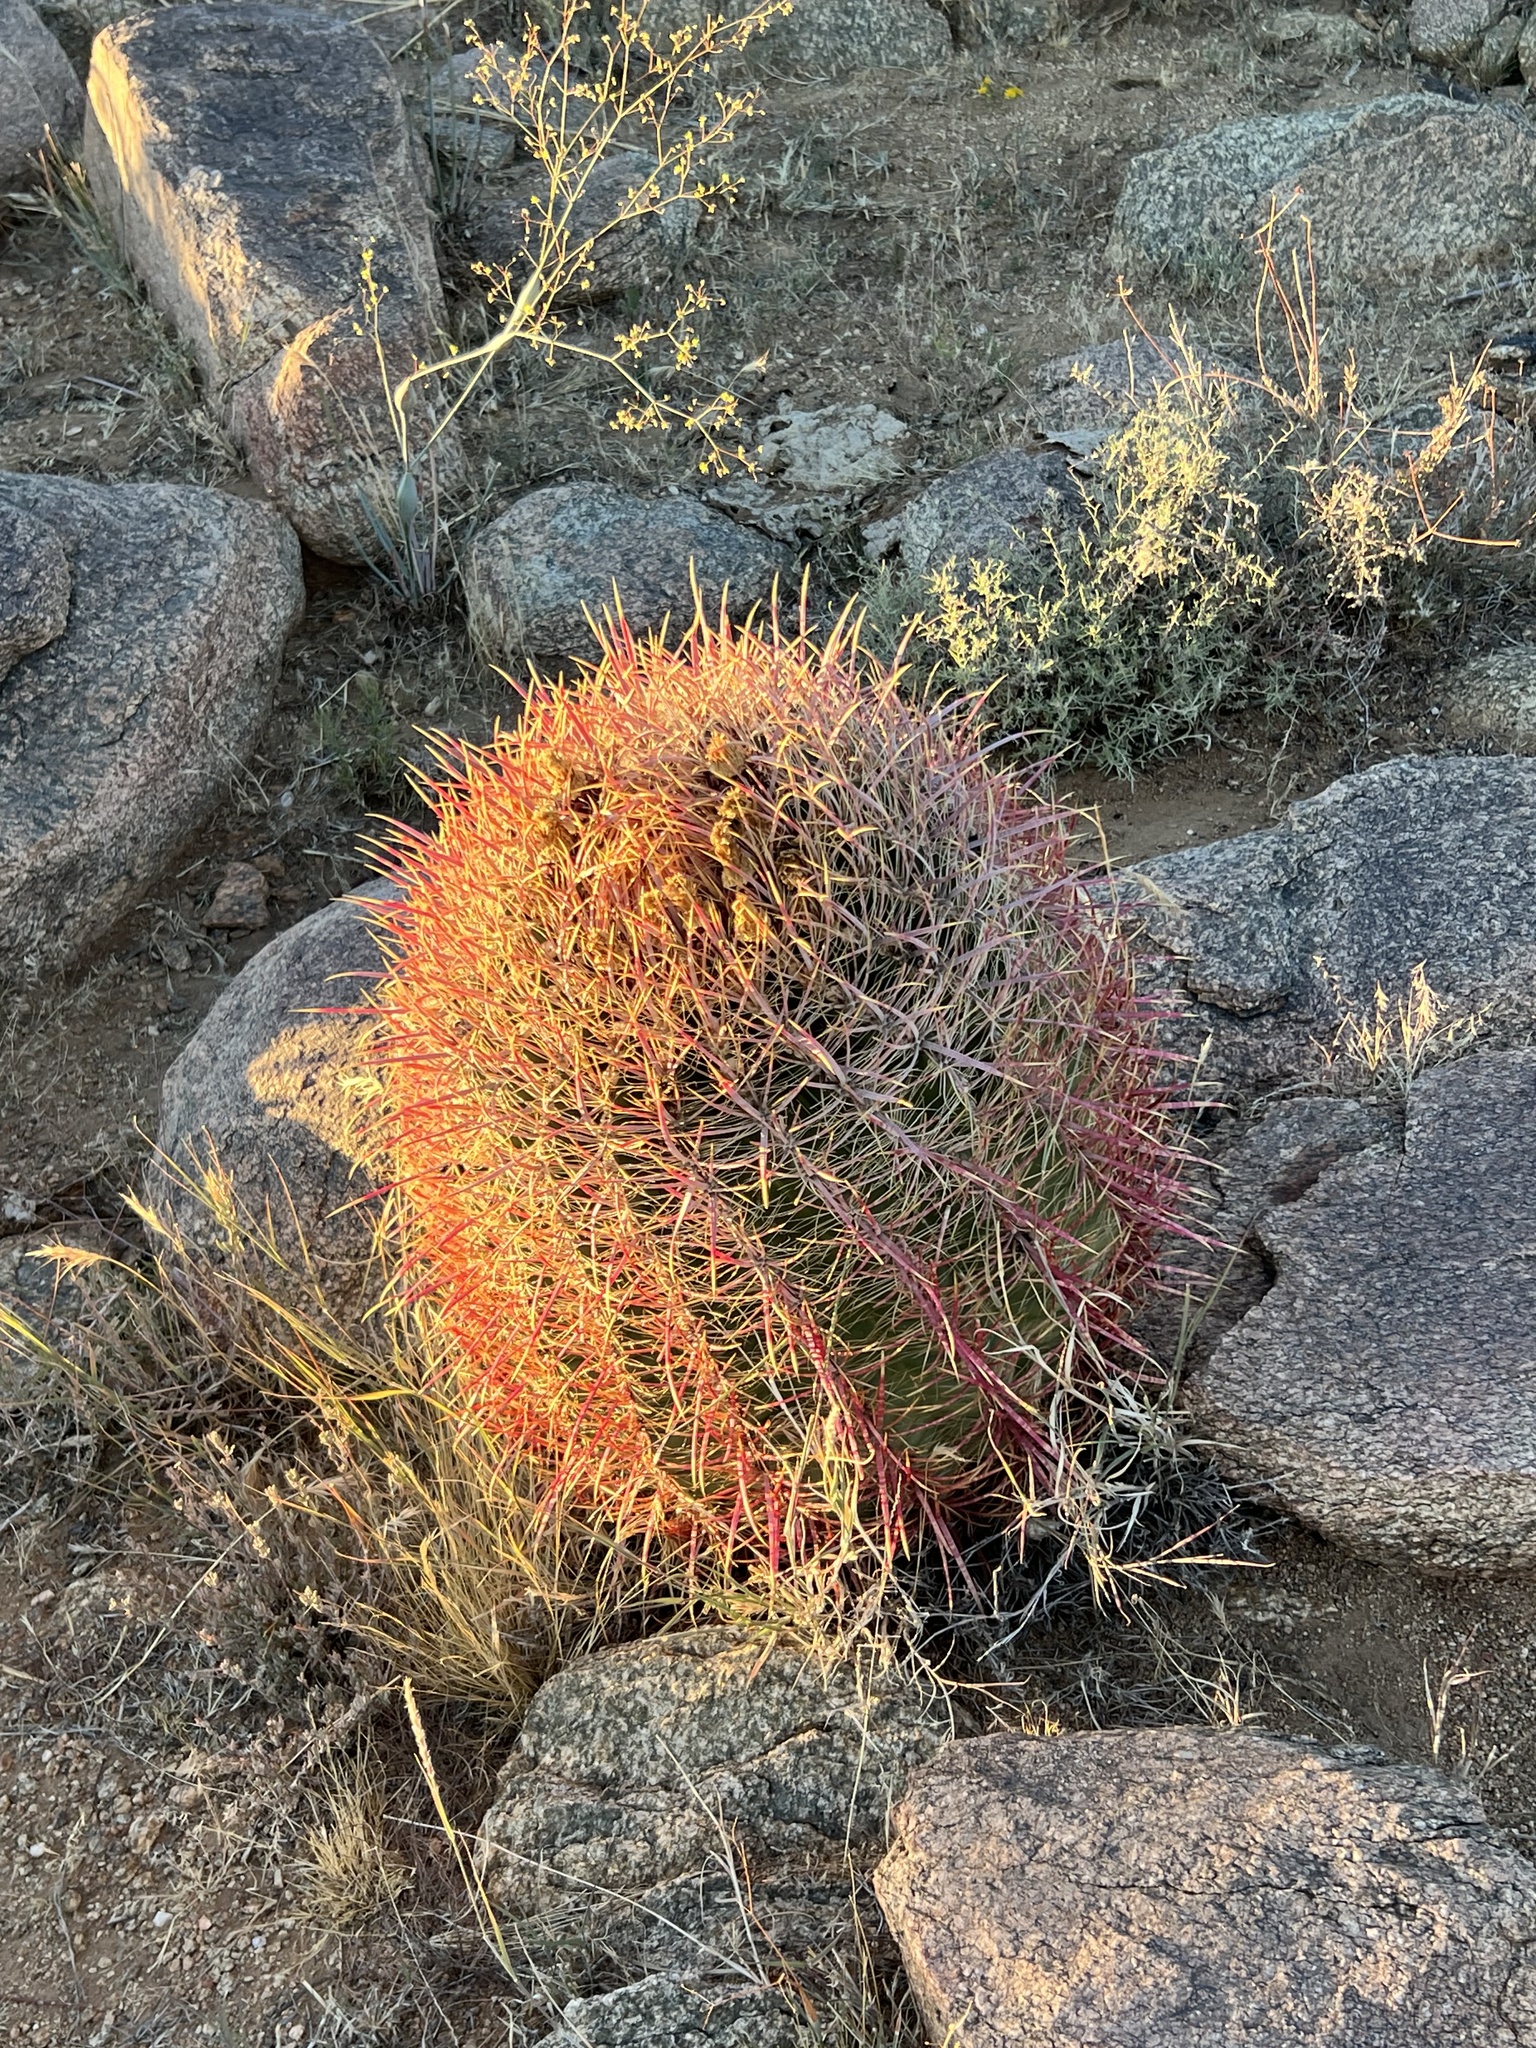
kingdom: Plantae
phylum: Tracheophyta
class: Magnoliopsida
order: Caryophyllales
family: Cactaceae
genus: Ferocactus
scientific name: Ferocactus cylindraceus
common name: California barrel cactus
